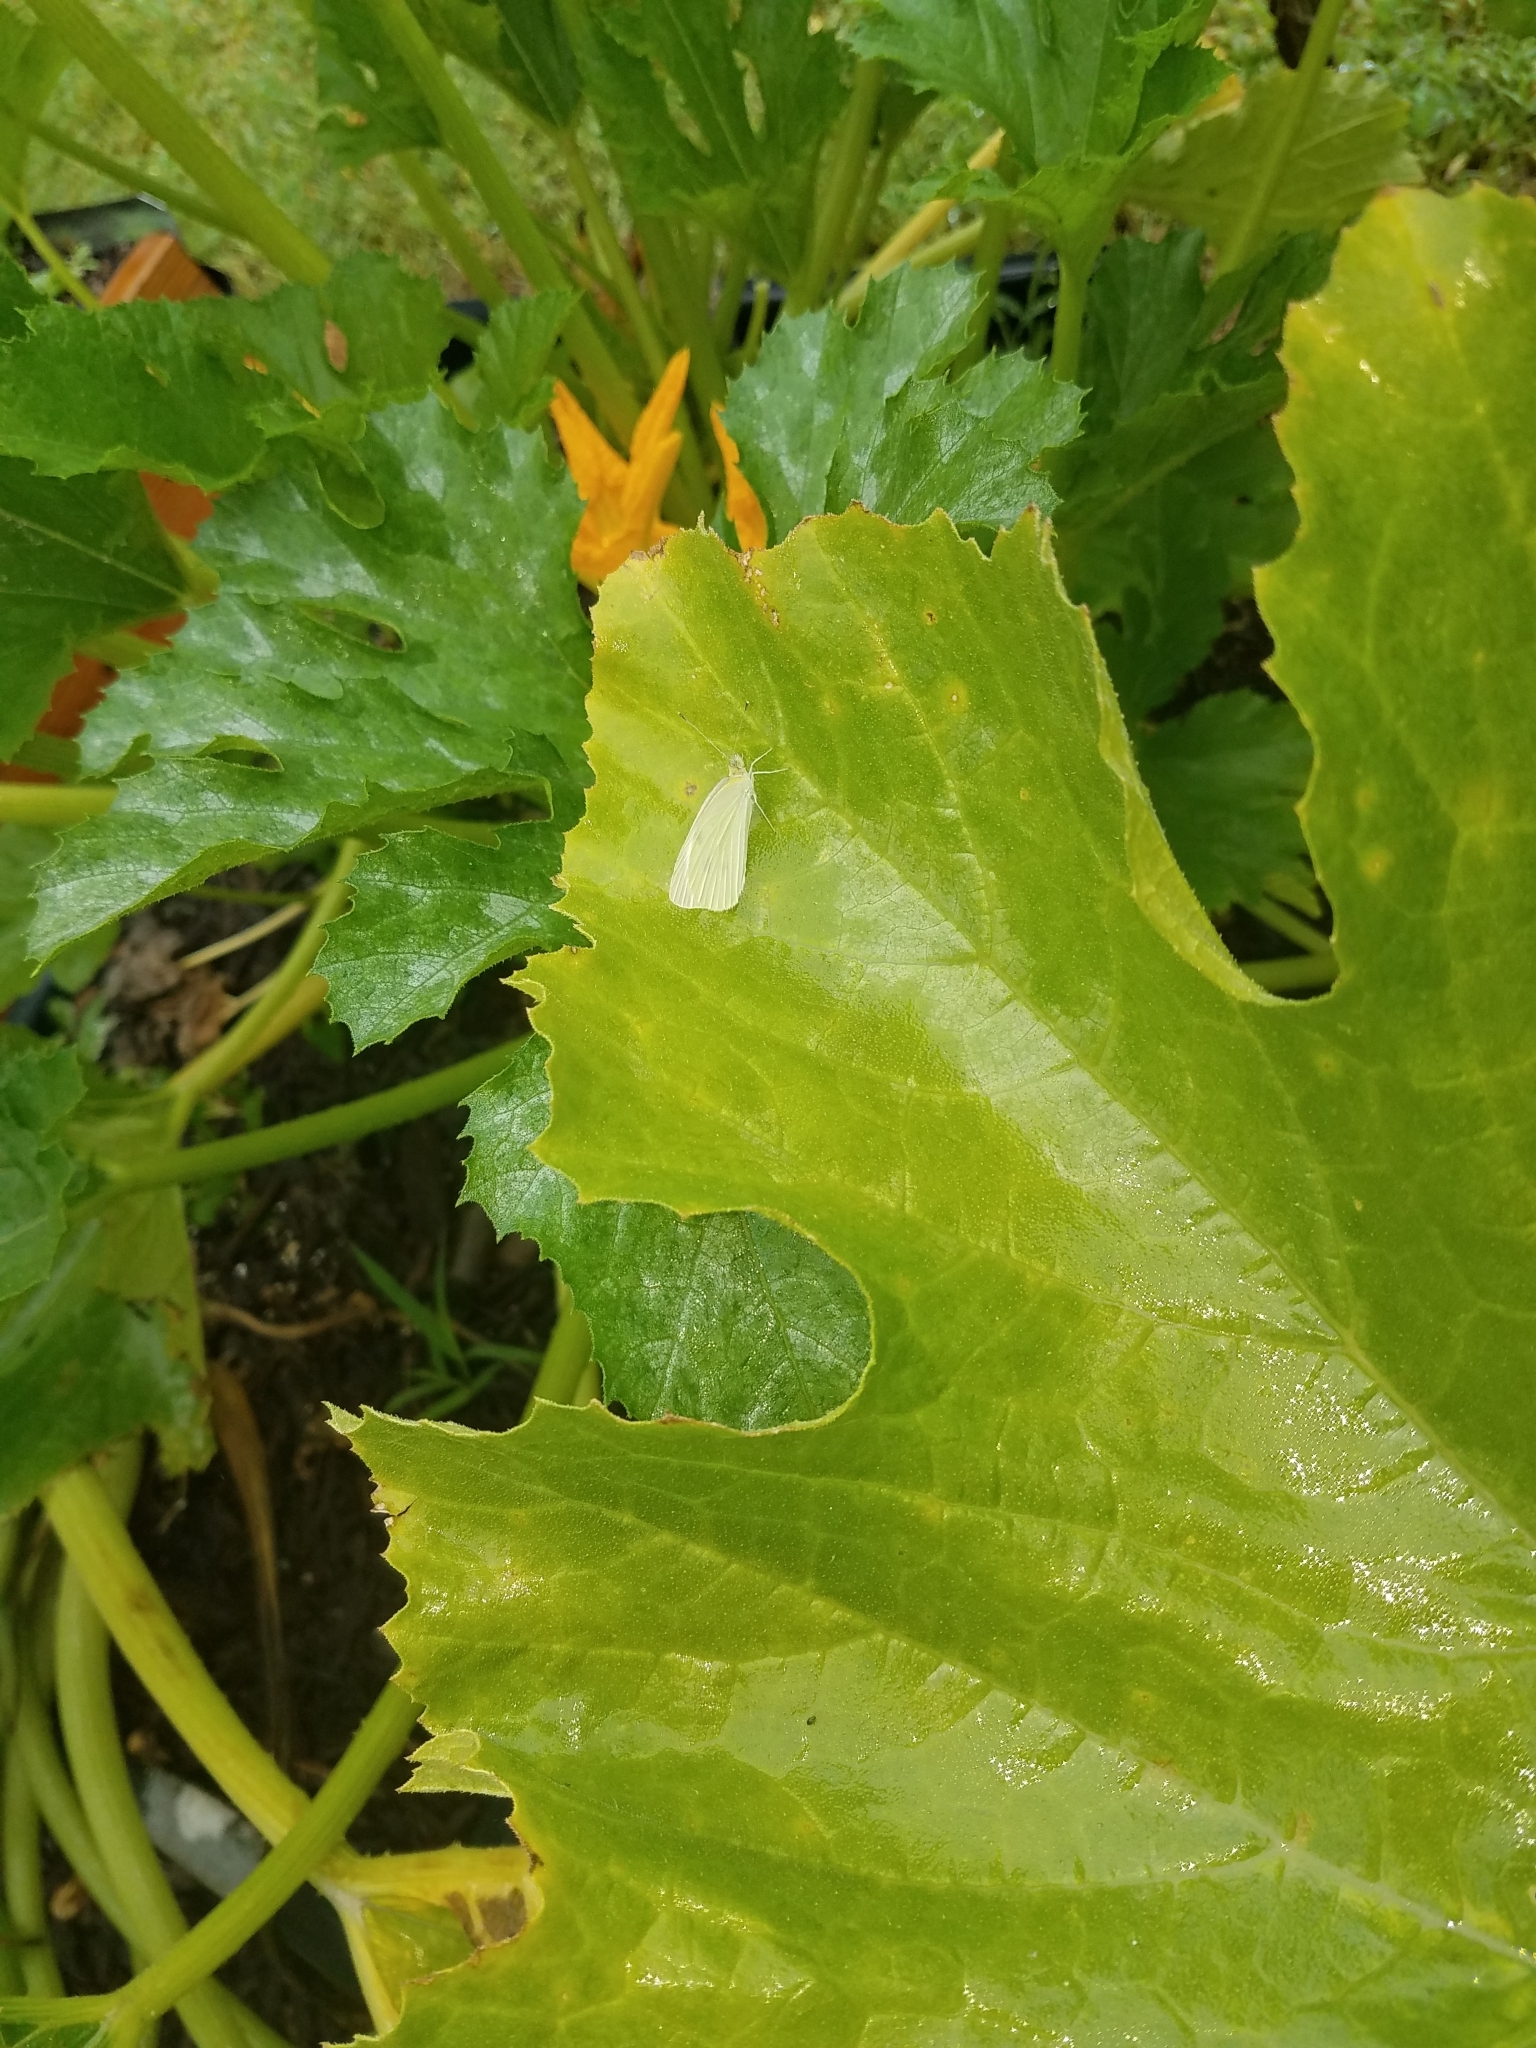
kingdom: Animalia
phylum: Arthropoda
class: Insecta
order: Lepidoptera
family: Pieridae
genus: Pieris
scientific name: Pieris rapae
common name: Small white
